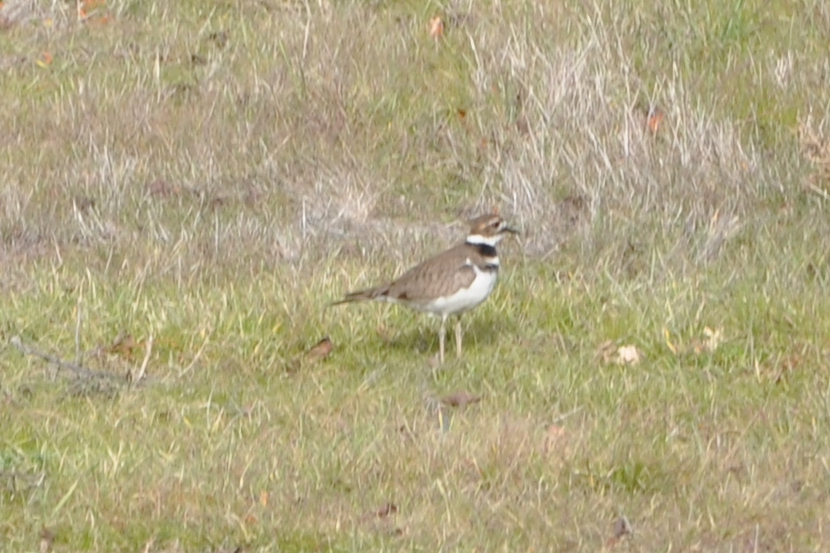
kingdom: Animalia
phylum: Chordata
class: Aves
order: Charadriiformes
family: Charadriidae
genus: Charadrius
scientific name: Charadrius vociferus
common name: Killdeer
